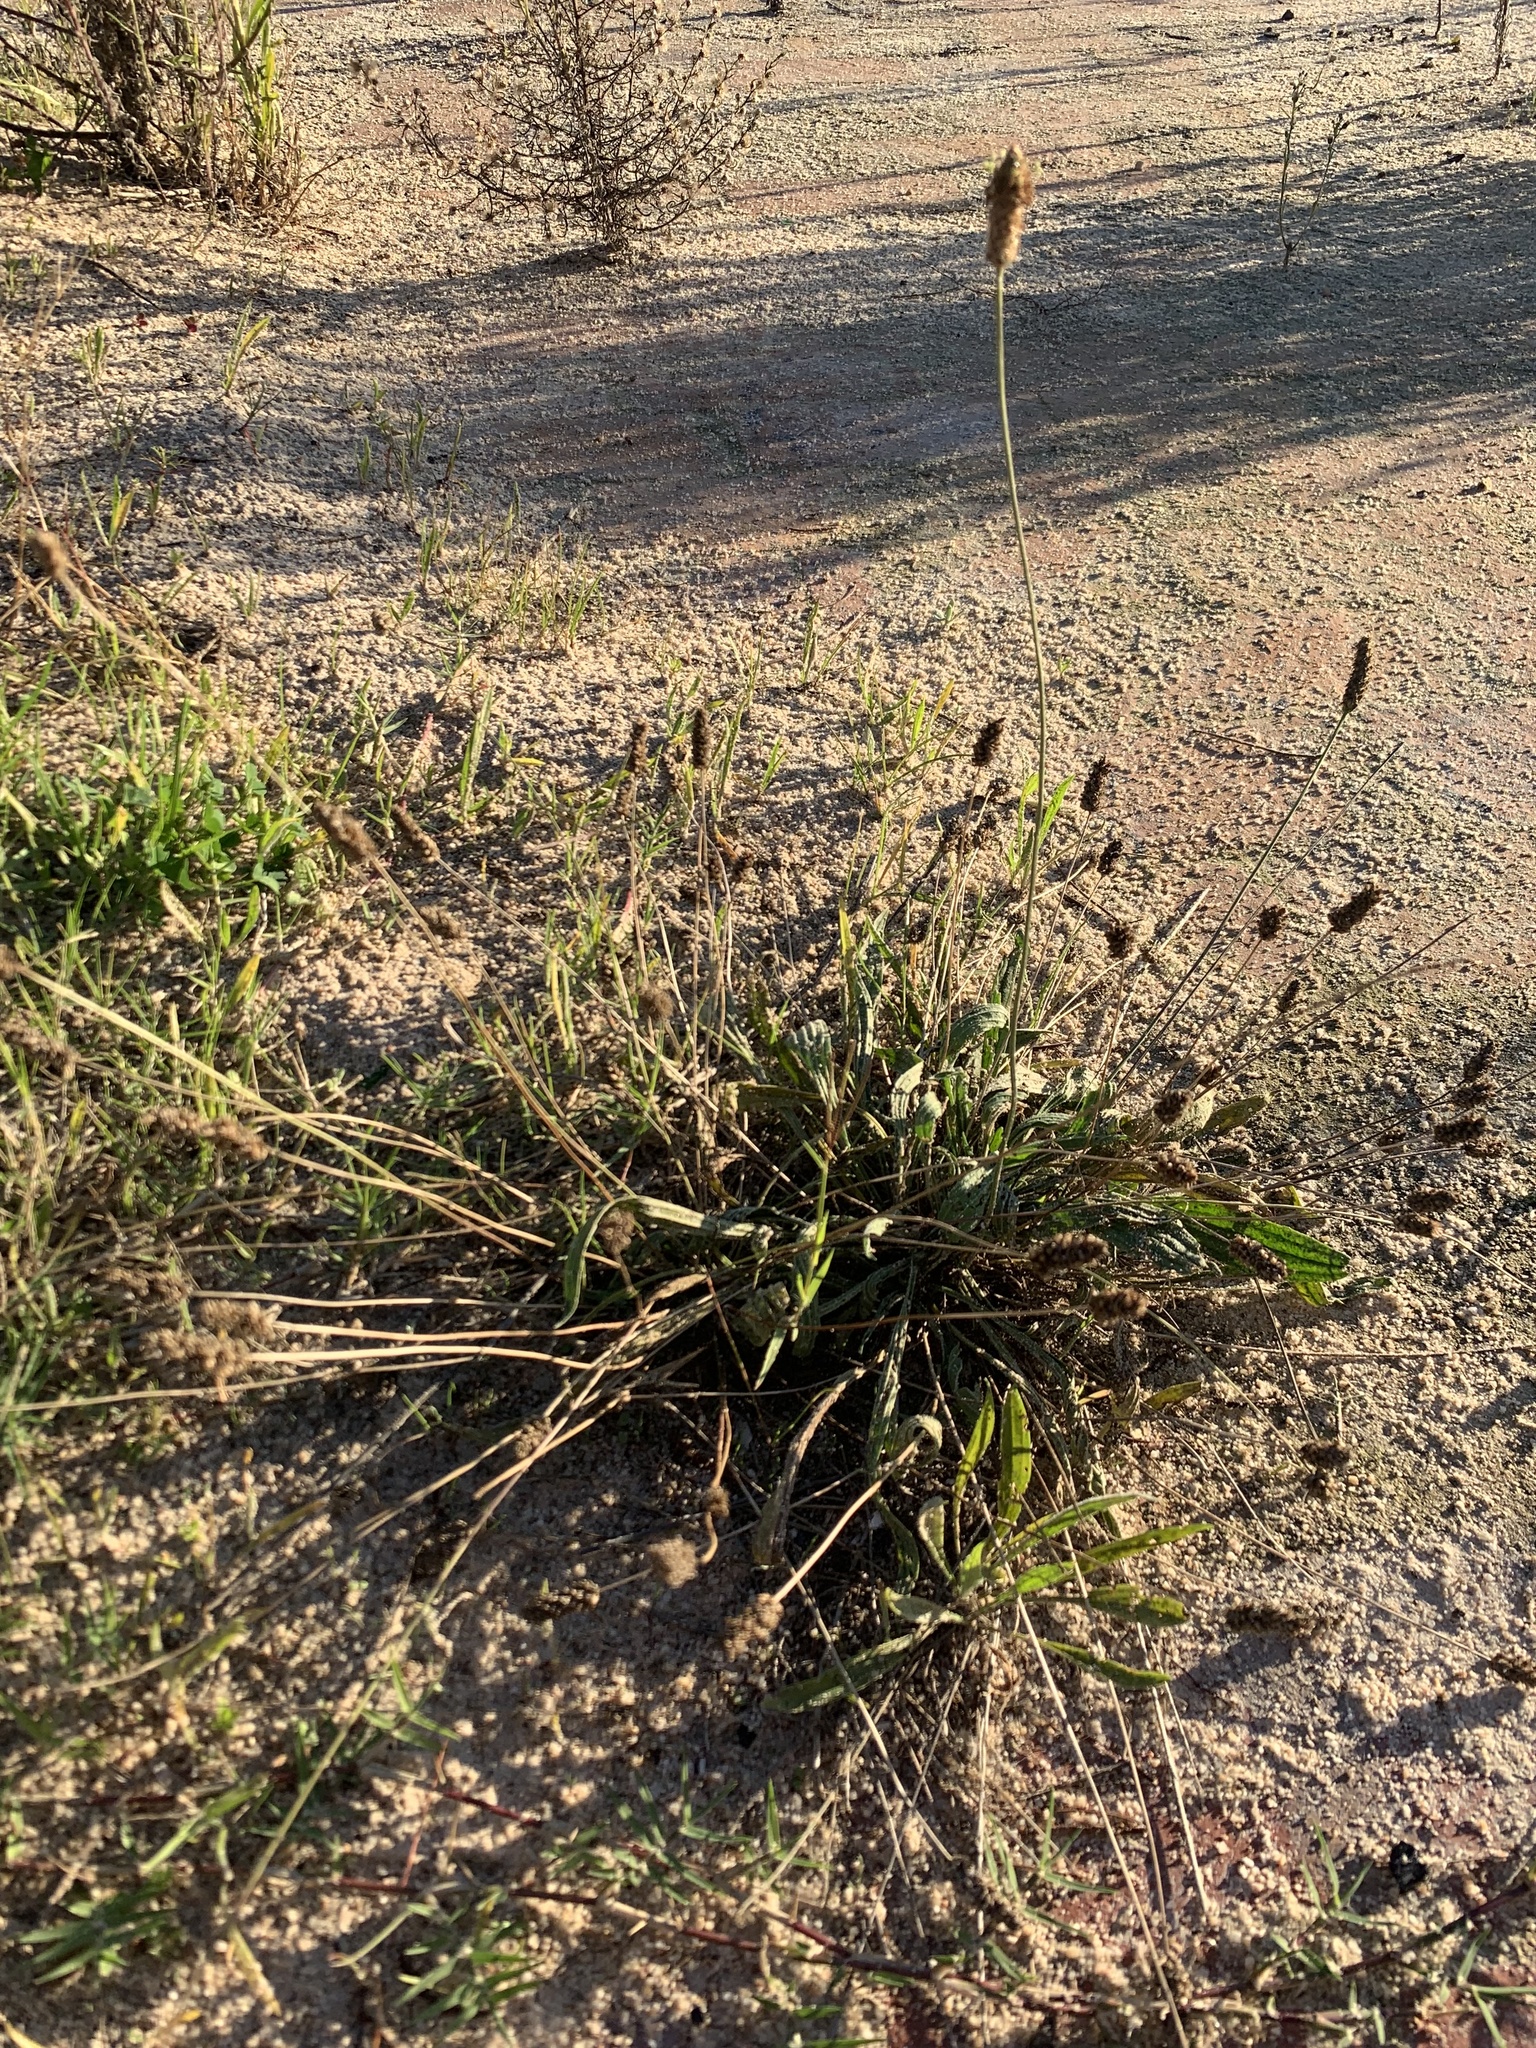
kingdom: Plantae
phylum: Tracheophyta
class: Magnoliopsida
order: Lamiales
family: Plantaginaceae
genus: Plantago
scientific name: Plantago lanceolata
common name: Ribwort plantain
